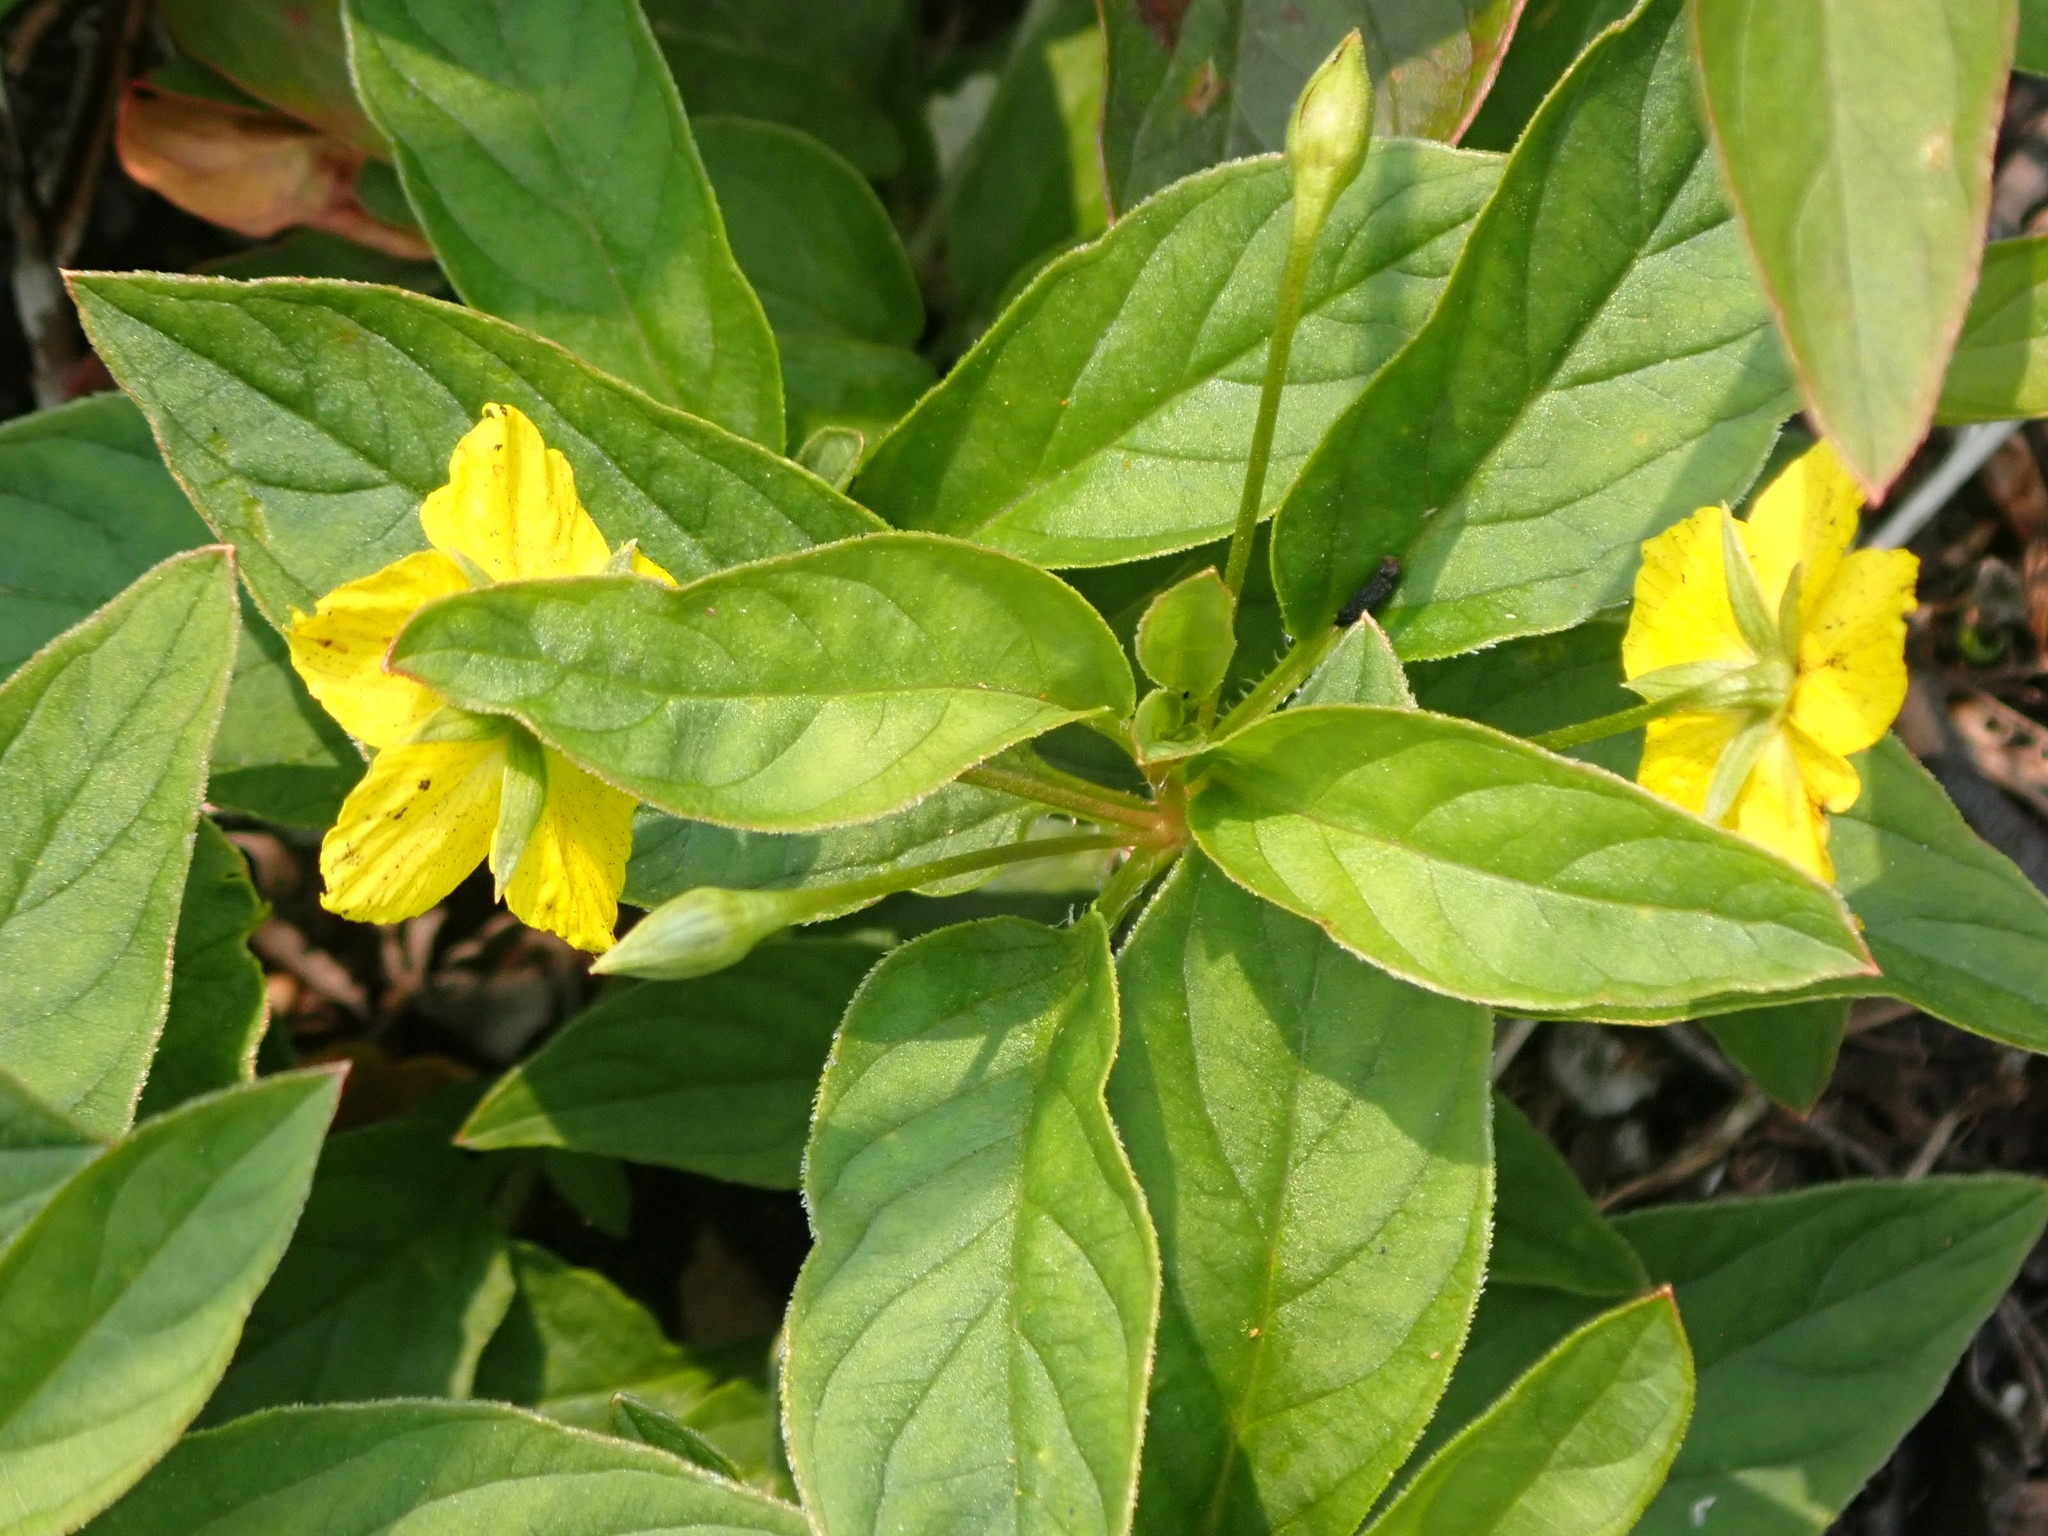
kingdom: Plantae
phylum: Tracheophyta
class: Magnoliopsida
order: Ericales
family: Primulaceae
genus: Lysimachia
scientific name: Lysimachia ciliata
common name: Fringed loosestrife
